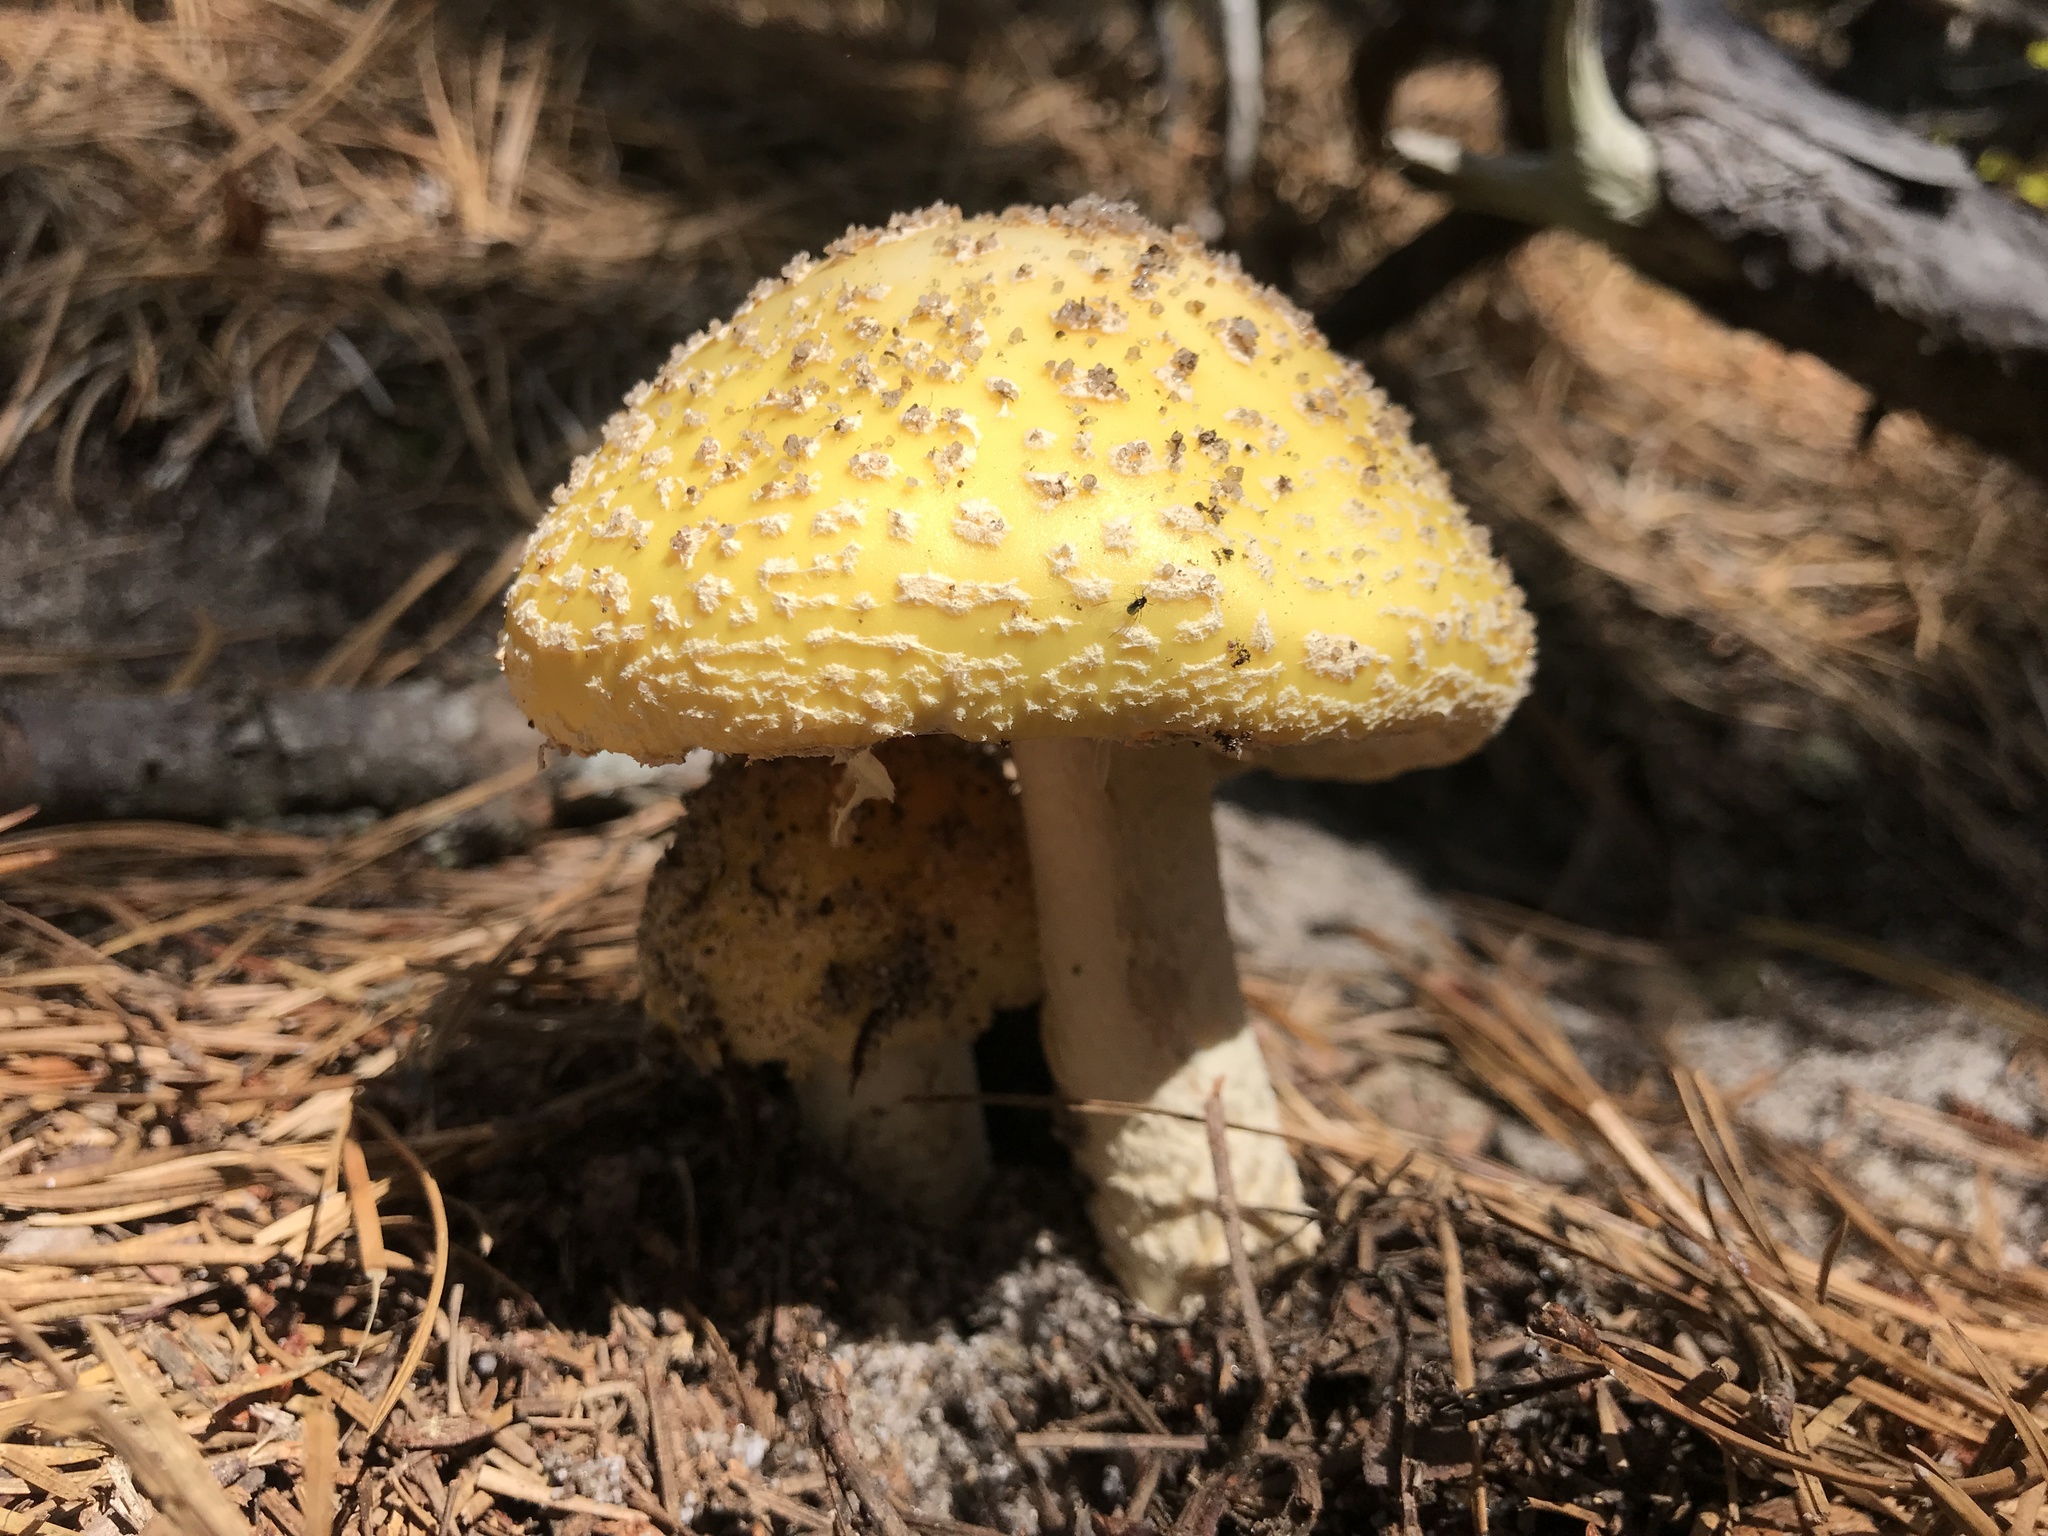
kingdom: Fungi
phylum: Basidiomycota
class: Agaricomycetes
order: Agaricales
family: Amanitaceae
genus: Amanita
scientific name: Amanita muscaria
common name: Fly agaric
